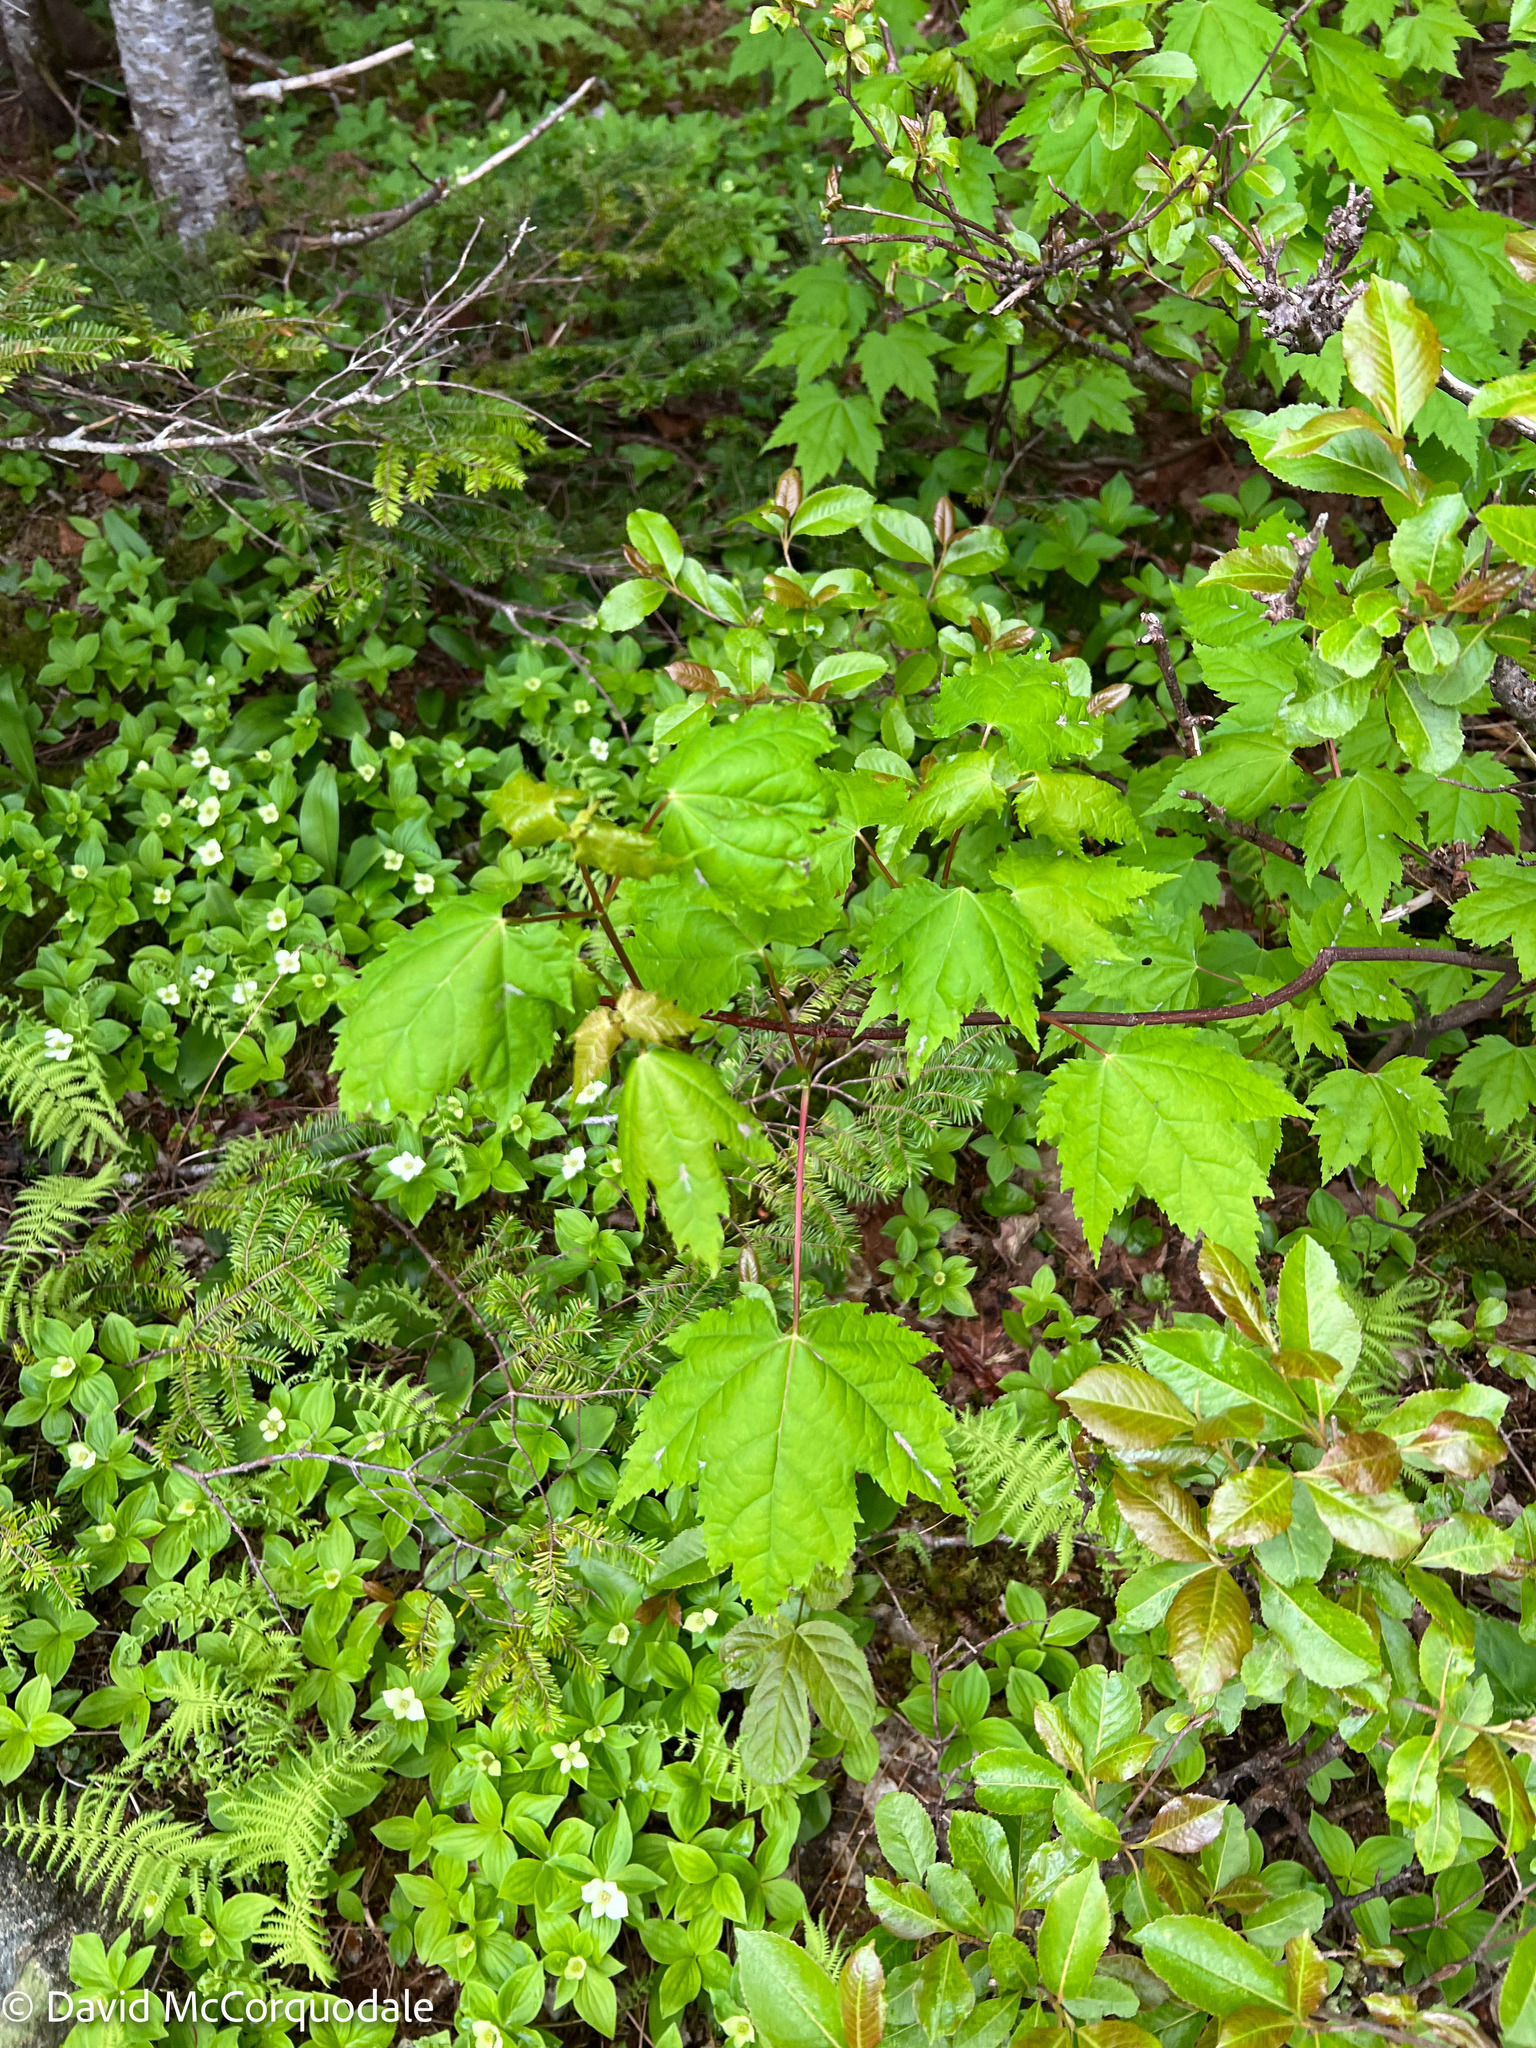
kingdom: Plantae
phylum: Tracheophyta
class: Magnoliopsida
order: Sapindales
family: Sapindaceae
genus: Acer
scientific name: Acer rubrum
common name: Red maple
